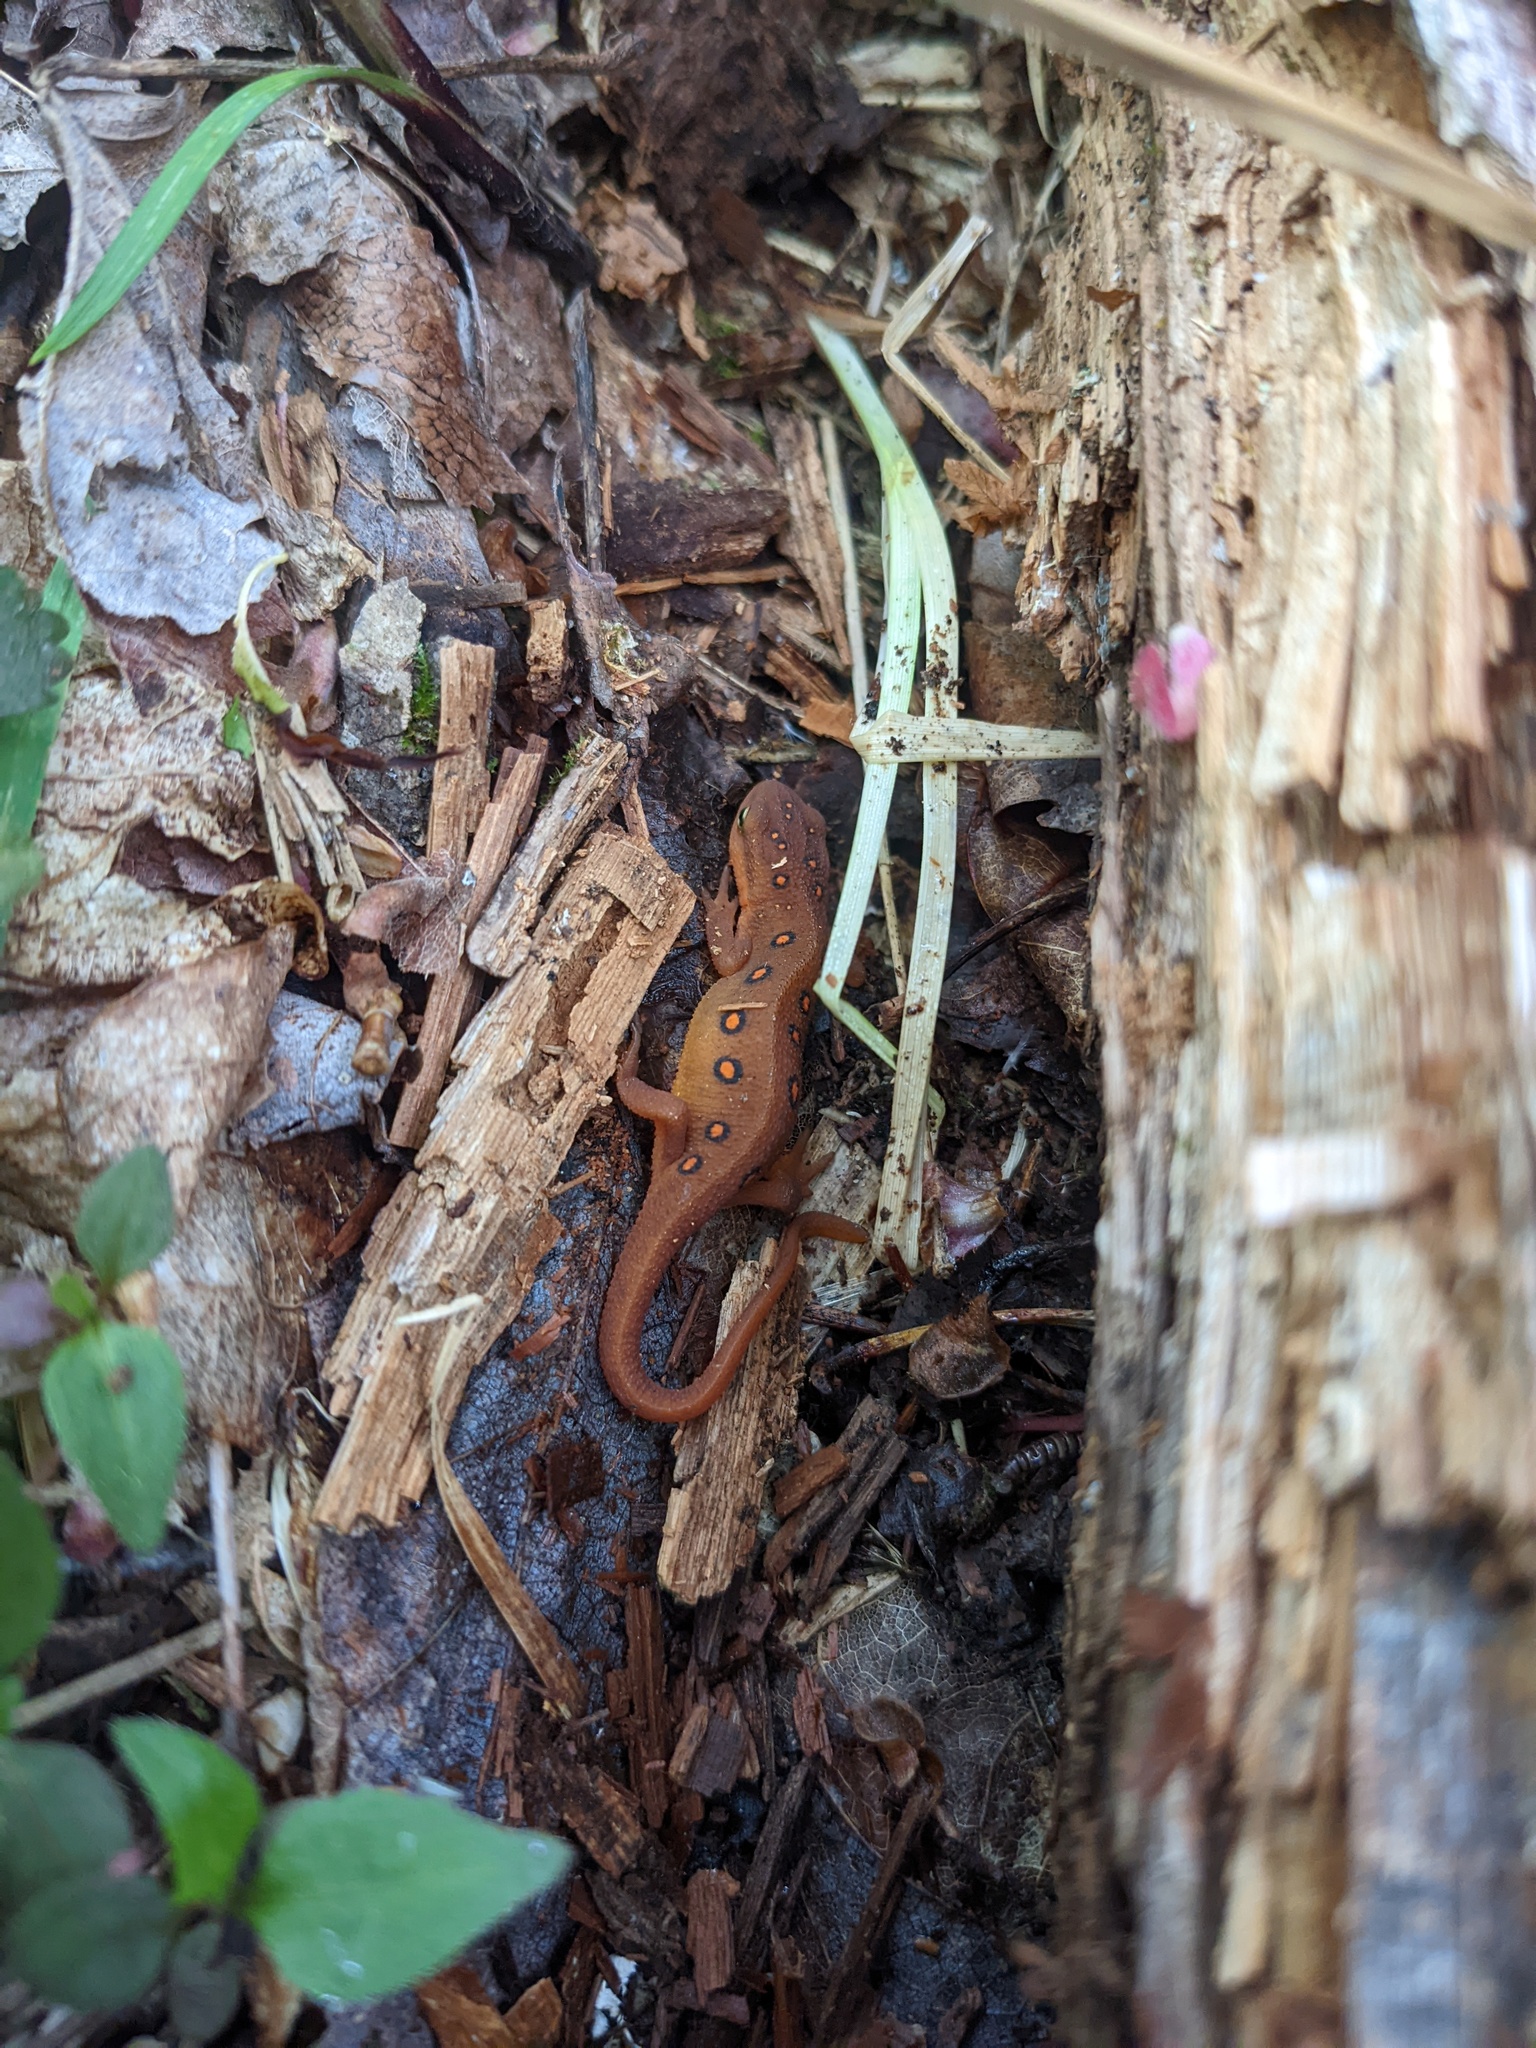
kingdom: Animalia
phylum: Chordata
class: Amphibia
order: Caudata
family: Salamandridae
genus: Notophthalmus
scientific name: Notophthalmus viridescens
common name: Eastern newt
